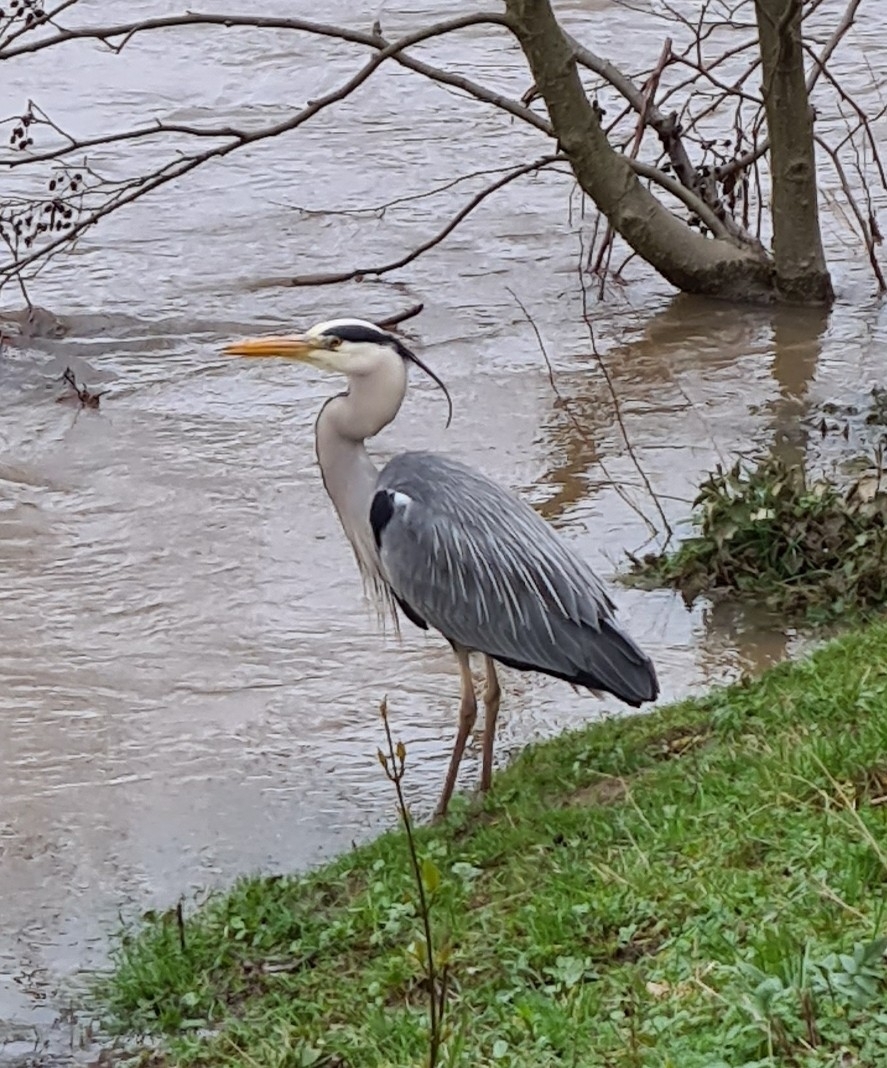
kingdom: Animalia
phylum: Chordata
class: Aves
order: Pelecaniformes
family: Ardeidae
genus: Ardea
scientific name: Ardea cinerea
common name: Grey heron
